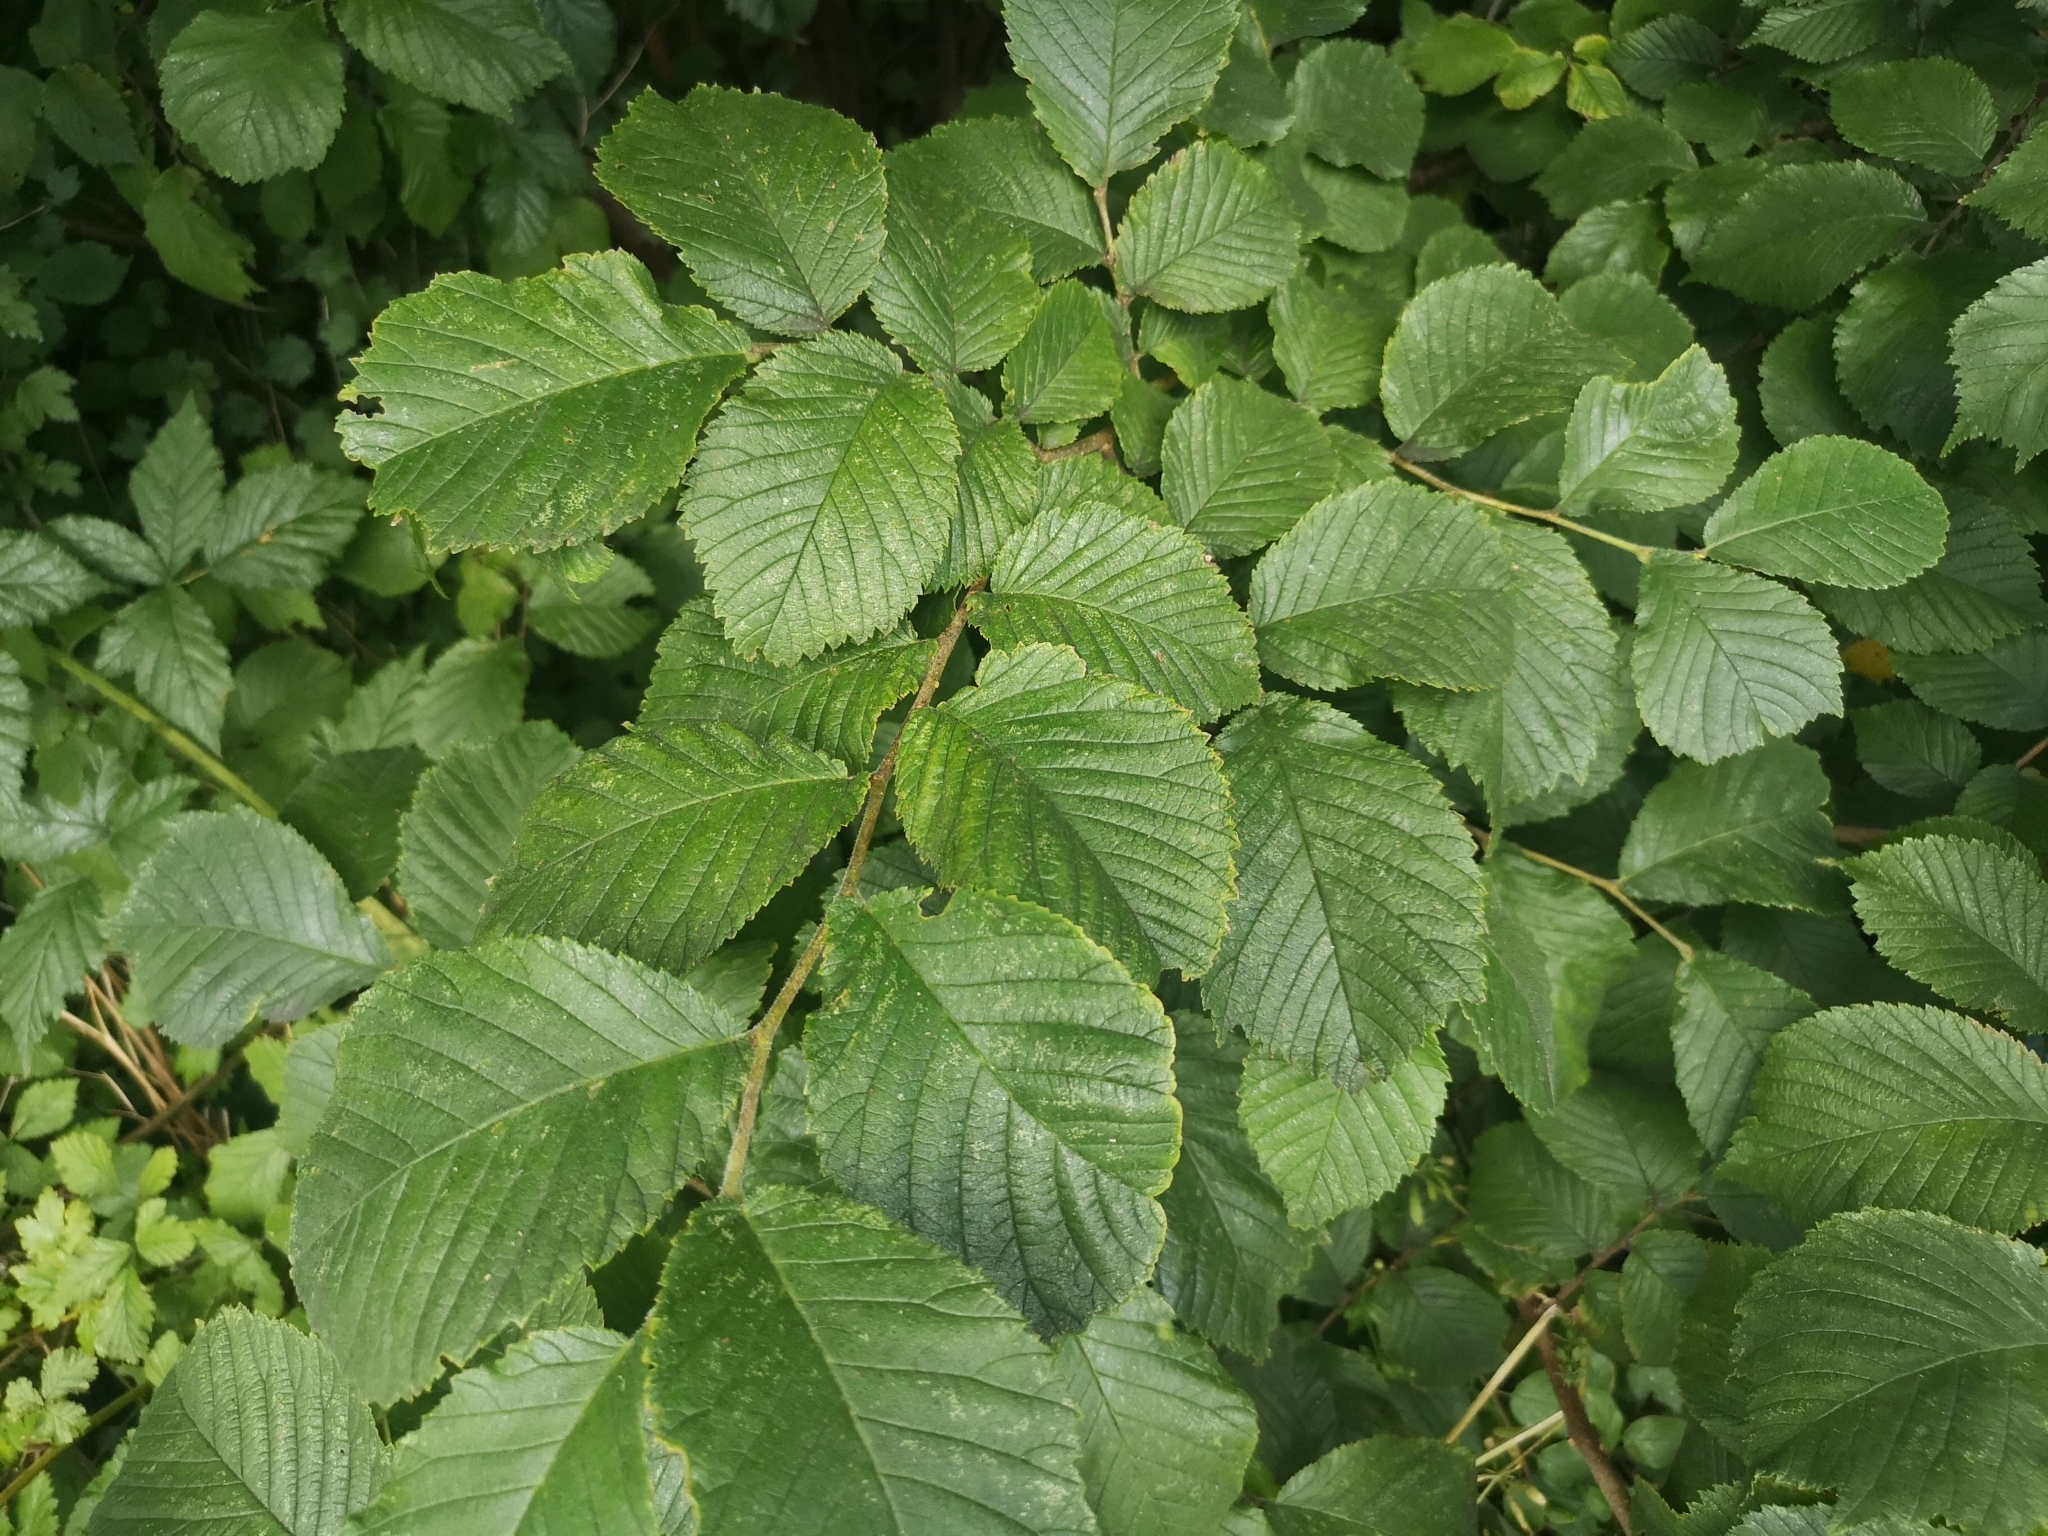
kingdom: Plantae
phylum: Tracheophyta
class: Magnoliopsida
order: Rosales
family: Ulmaceae
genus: Ulmus
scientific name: Ulmus glabra
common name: Wych elm
